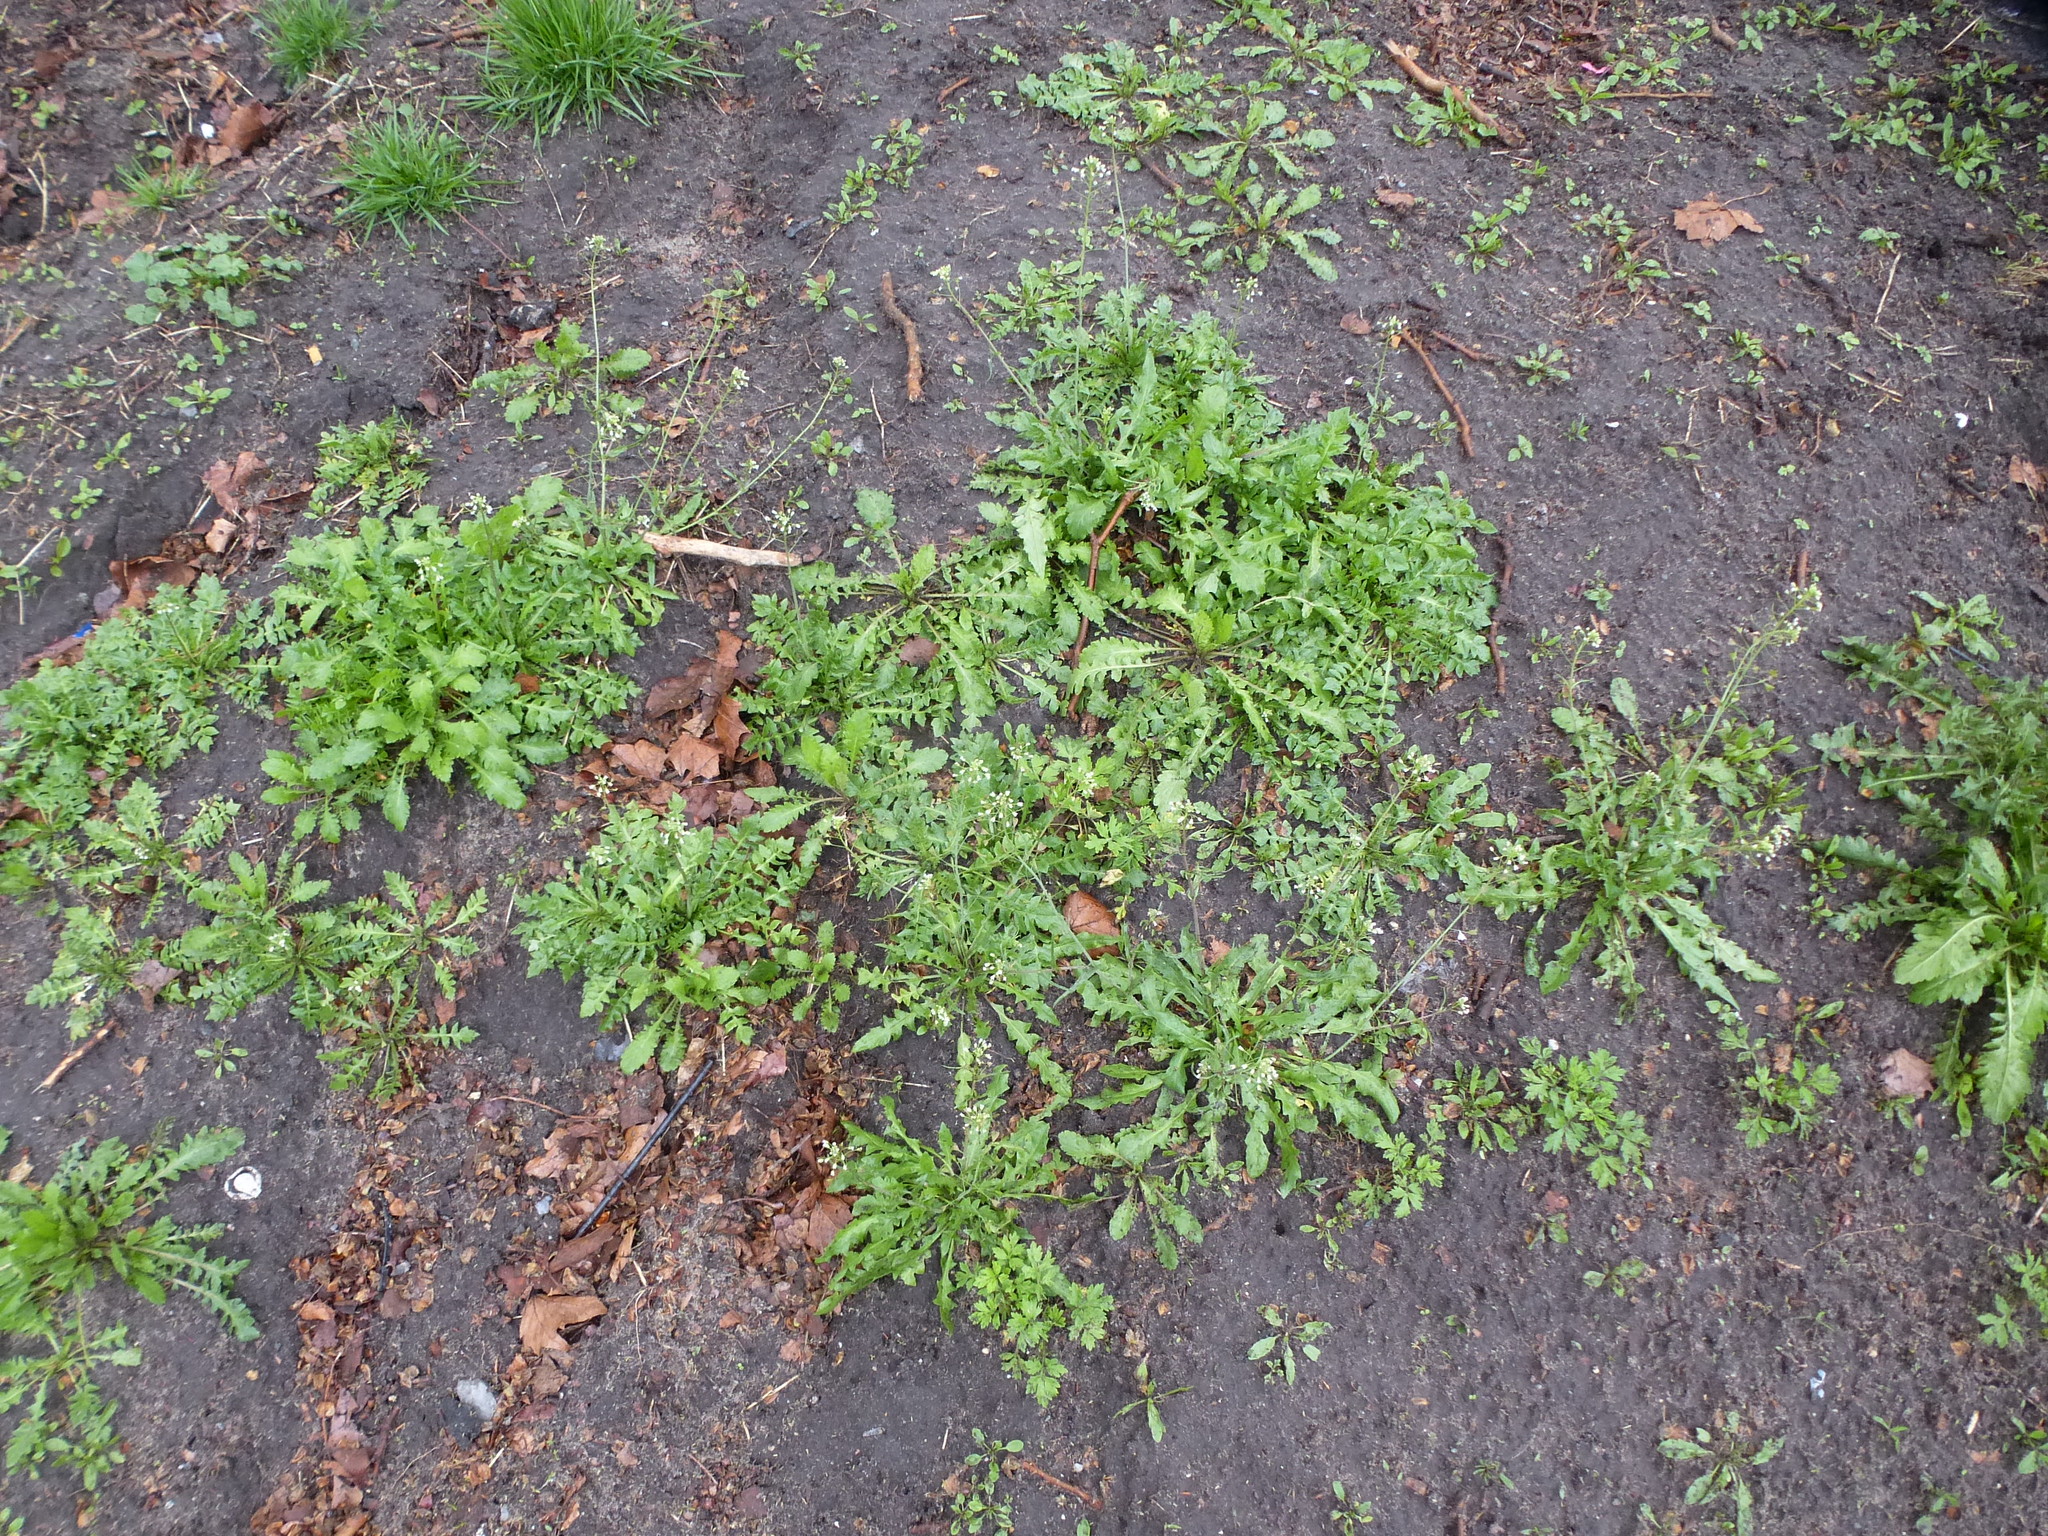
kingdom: Plantae
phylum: Tracheophyta
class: Magnoliopsida
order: Brassicales
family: Brassicaceae
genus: Capsella
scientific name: Capsella bursa-pastoris
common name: Shepherd's purse
